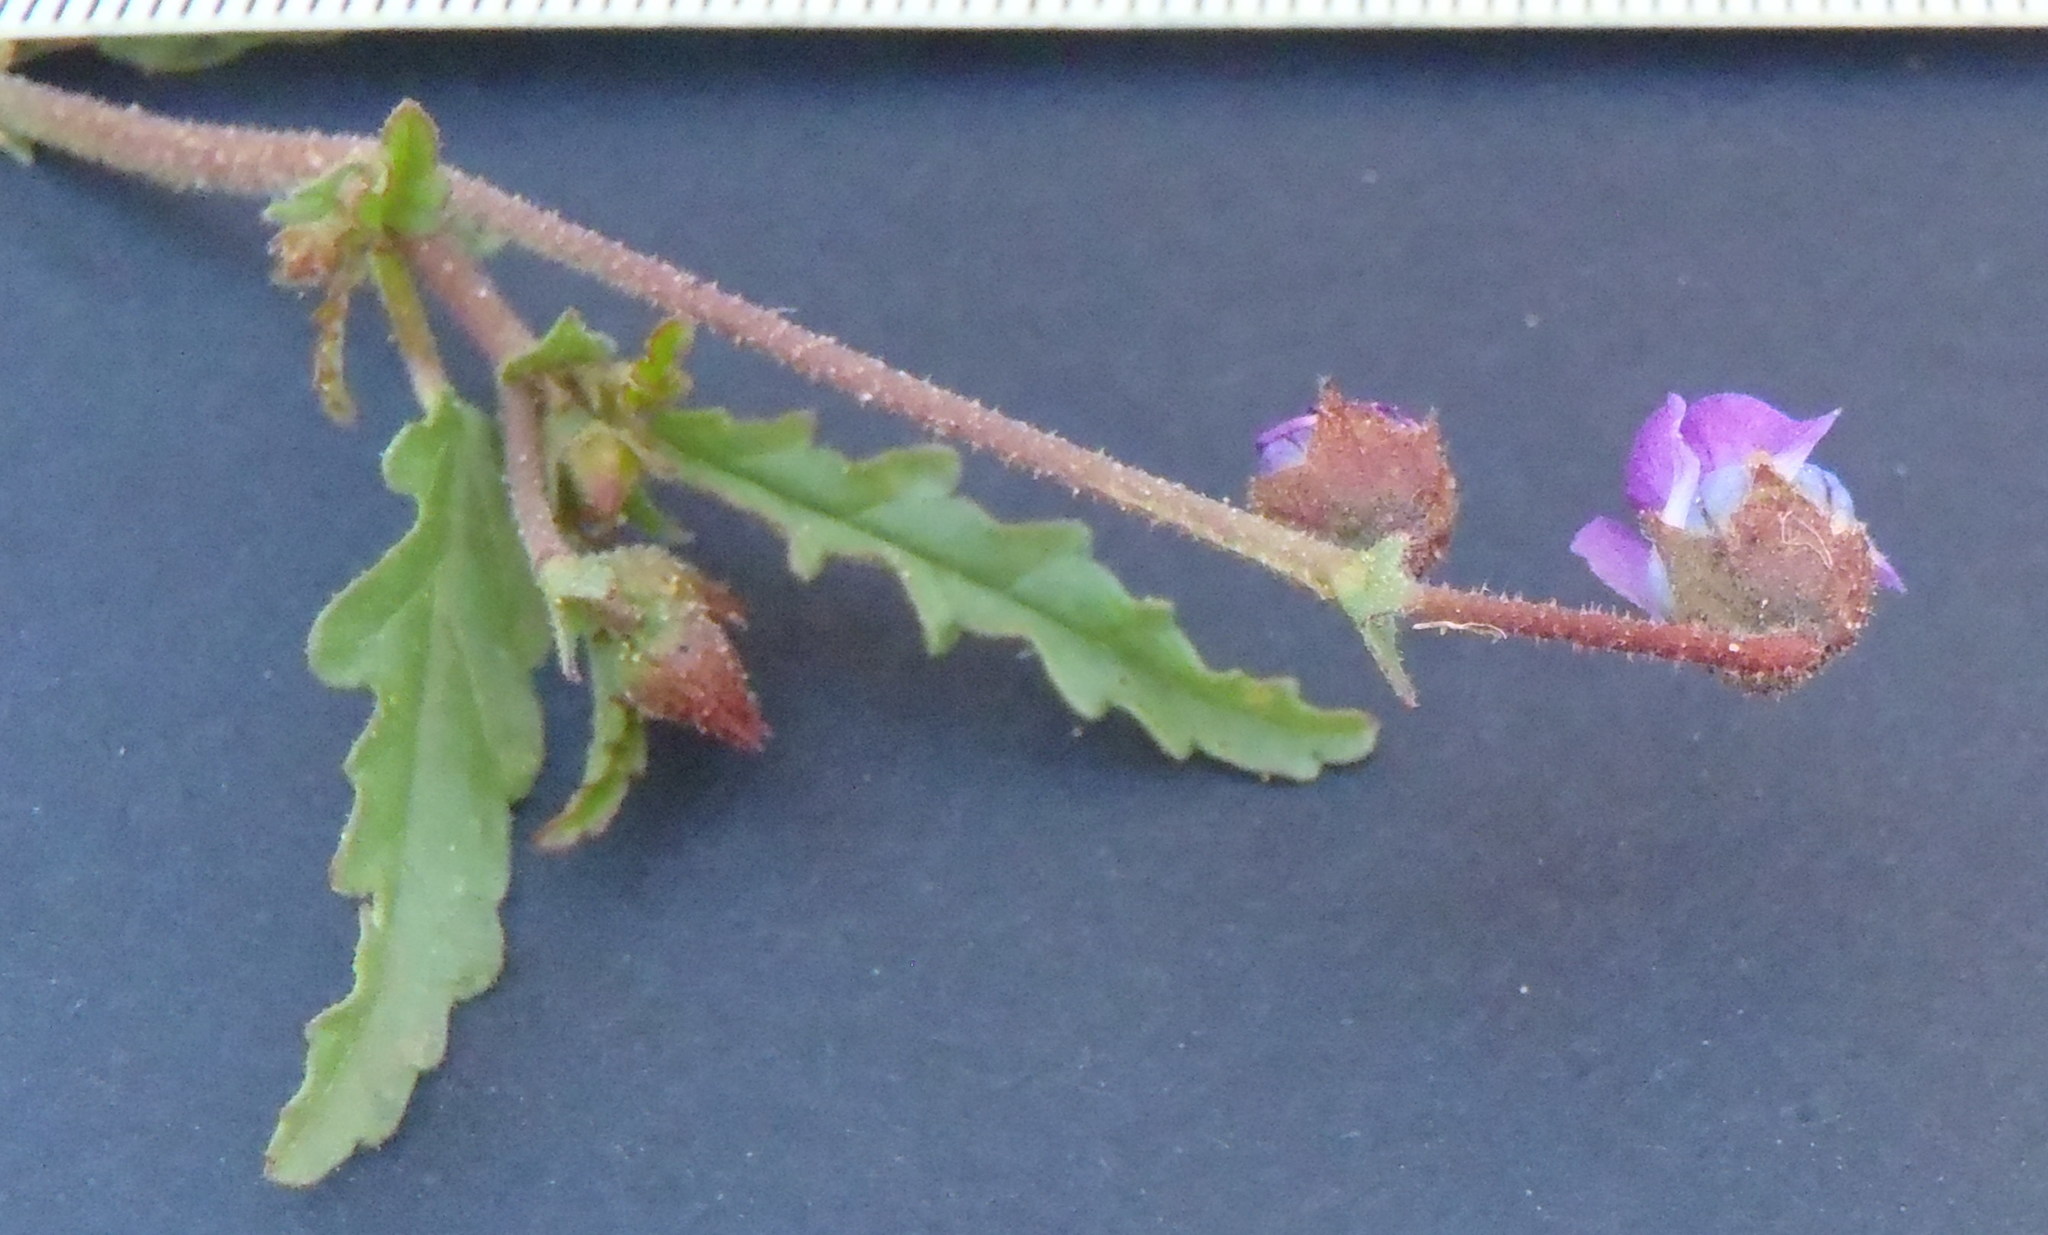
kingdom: Plantae
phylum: Tracheophyta
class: Magnoliopsida
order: Malvales
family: Malvaceae
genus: Hermannia
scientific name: Hermannia coccocarpa
